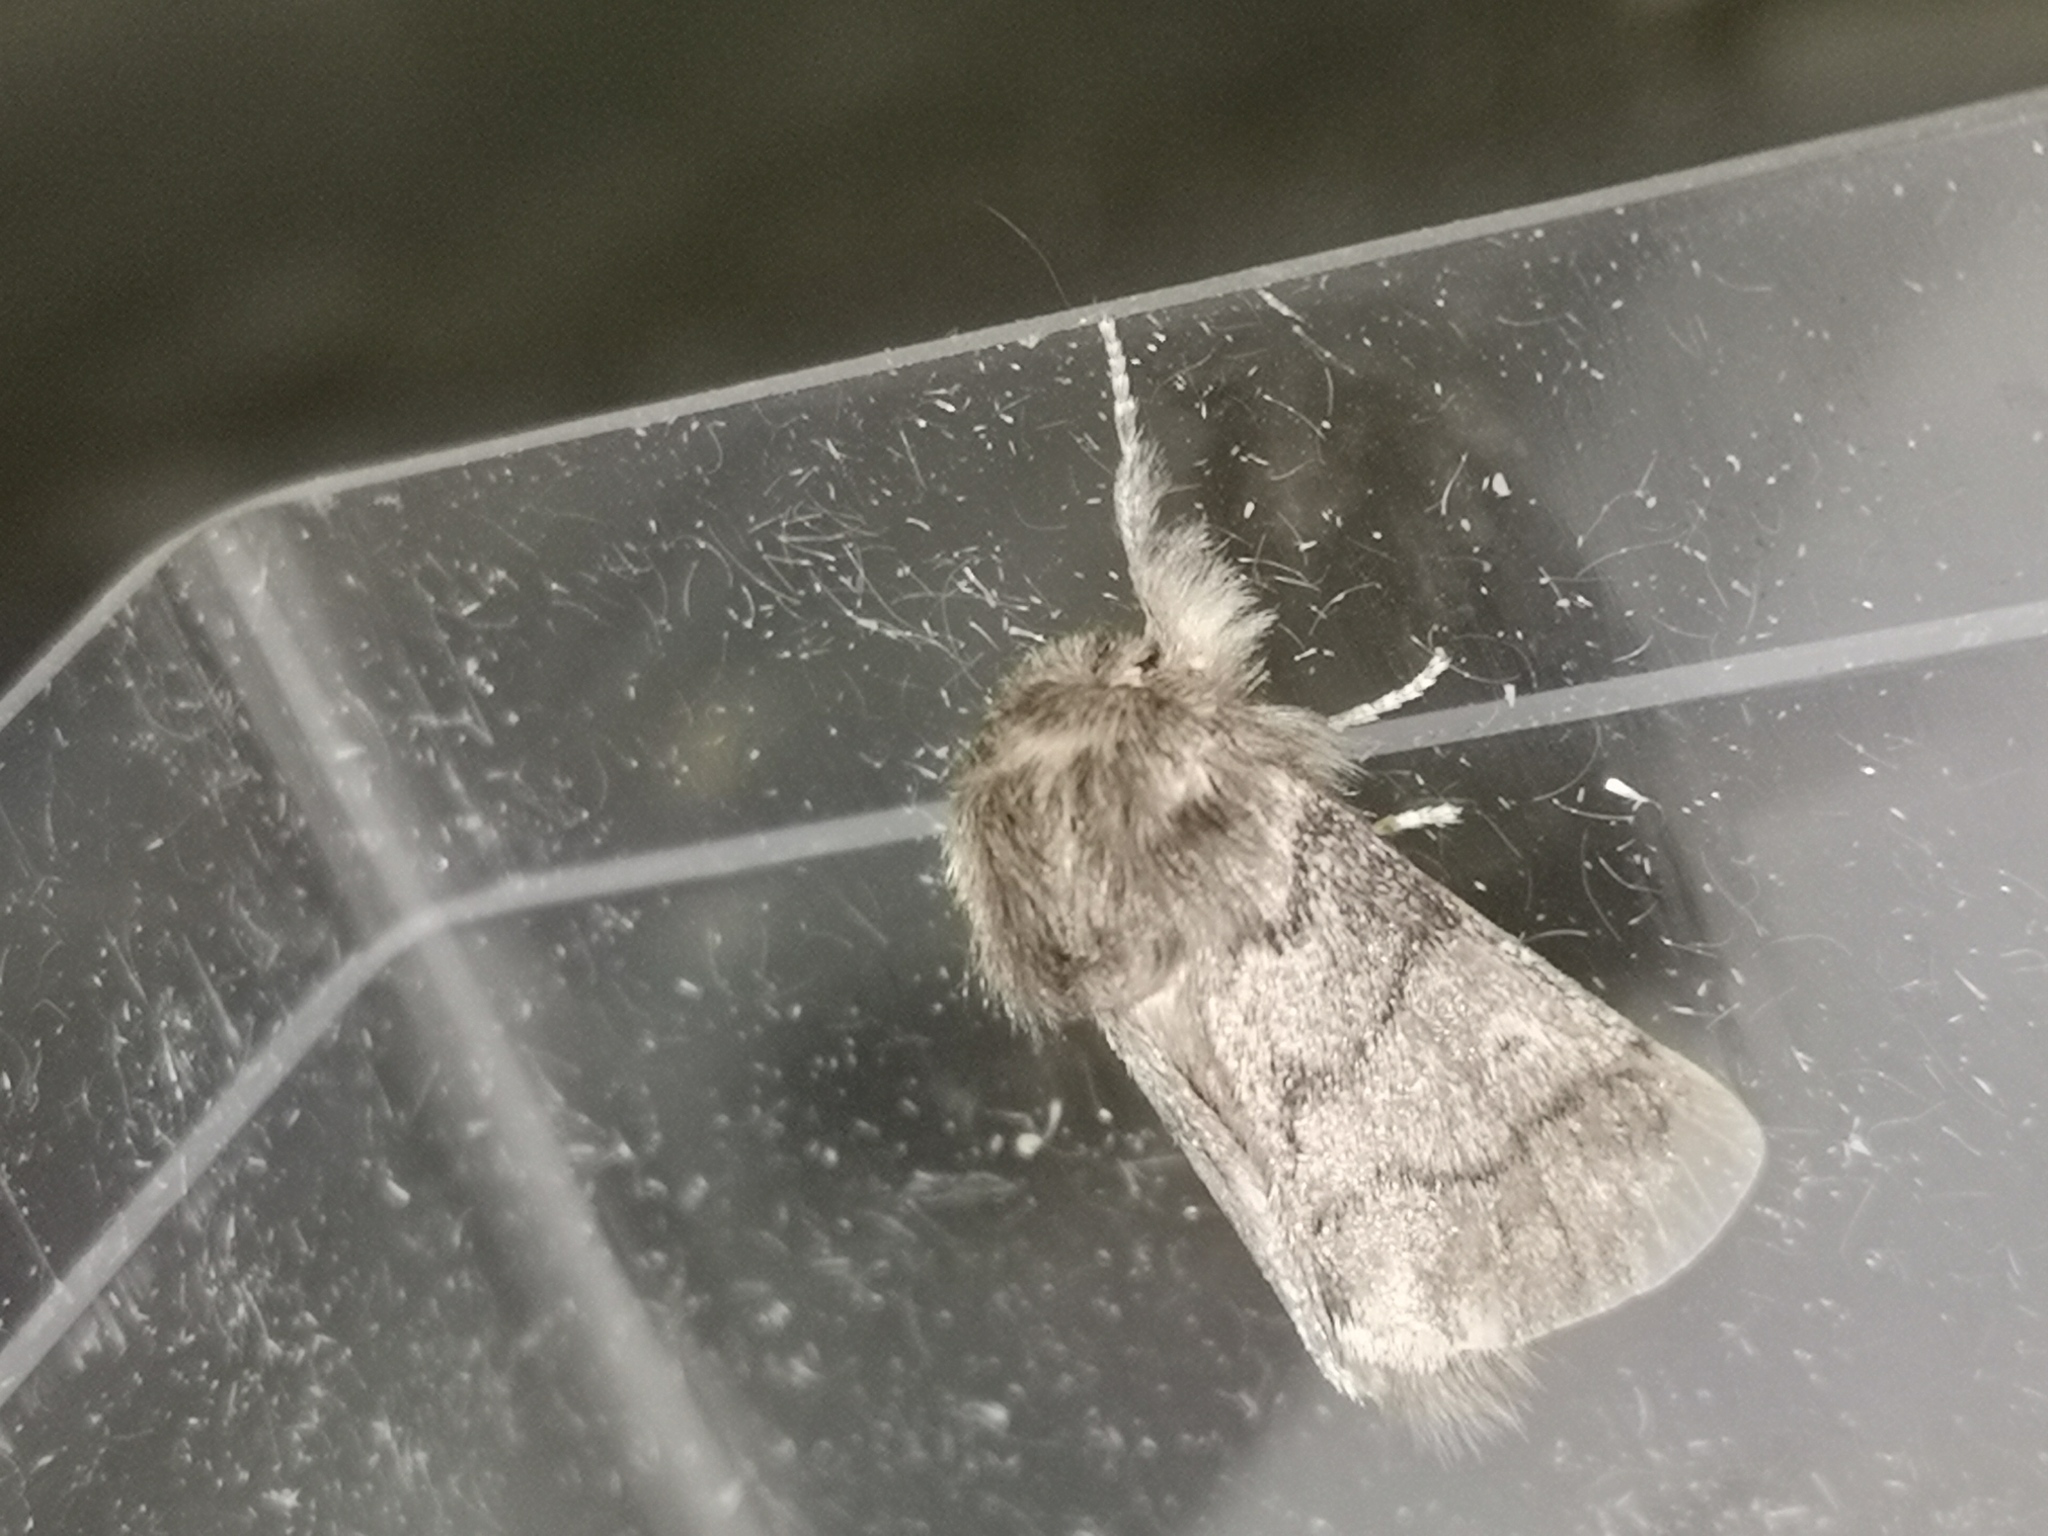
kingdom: Animalia
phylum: Arthropoda
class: Insecta
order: Lepidoptera
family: Notodontidae
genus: Thaumetopoea
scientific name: Thaumetopoea processionea
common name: Oak processionea
